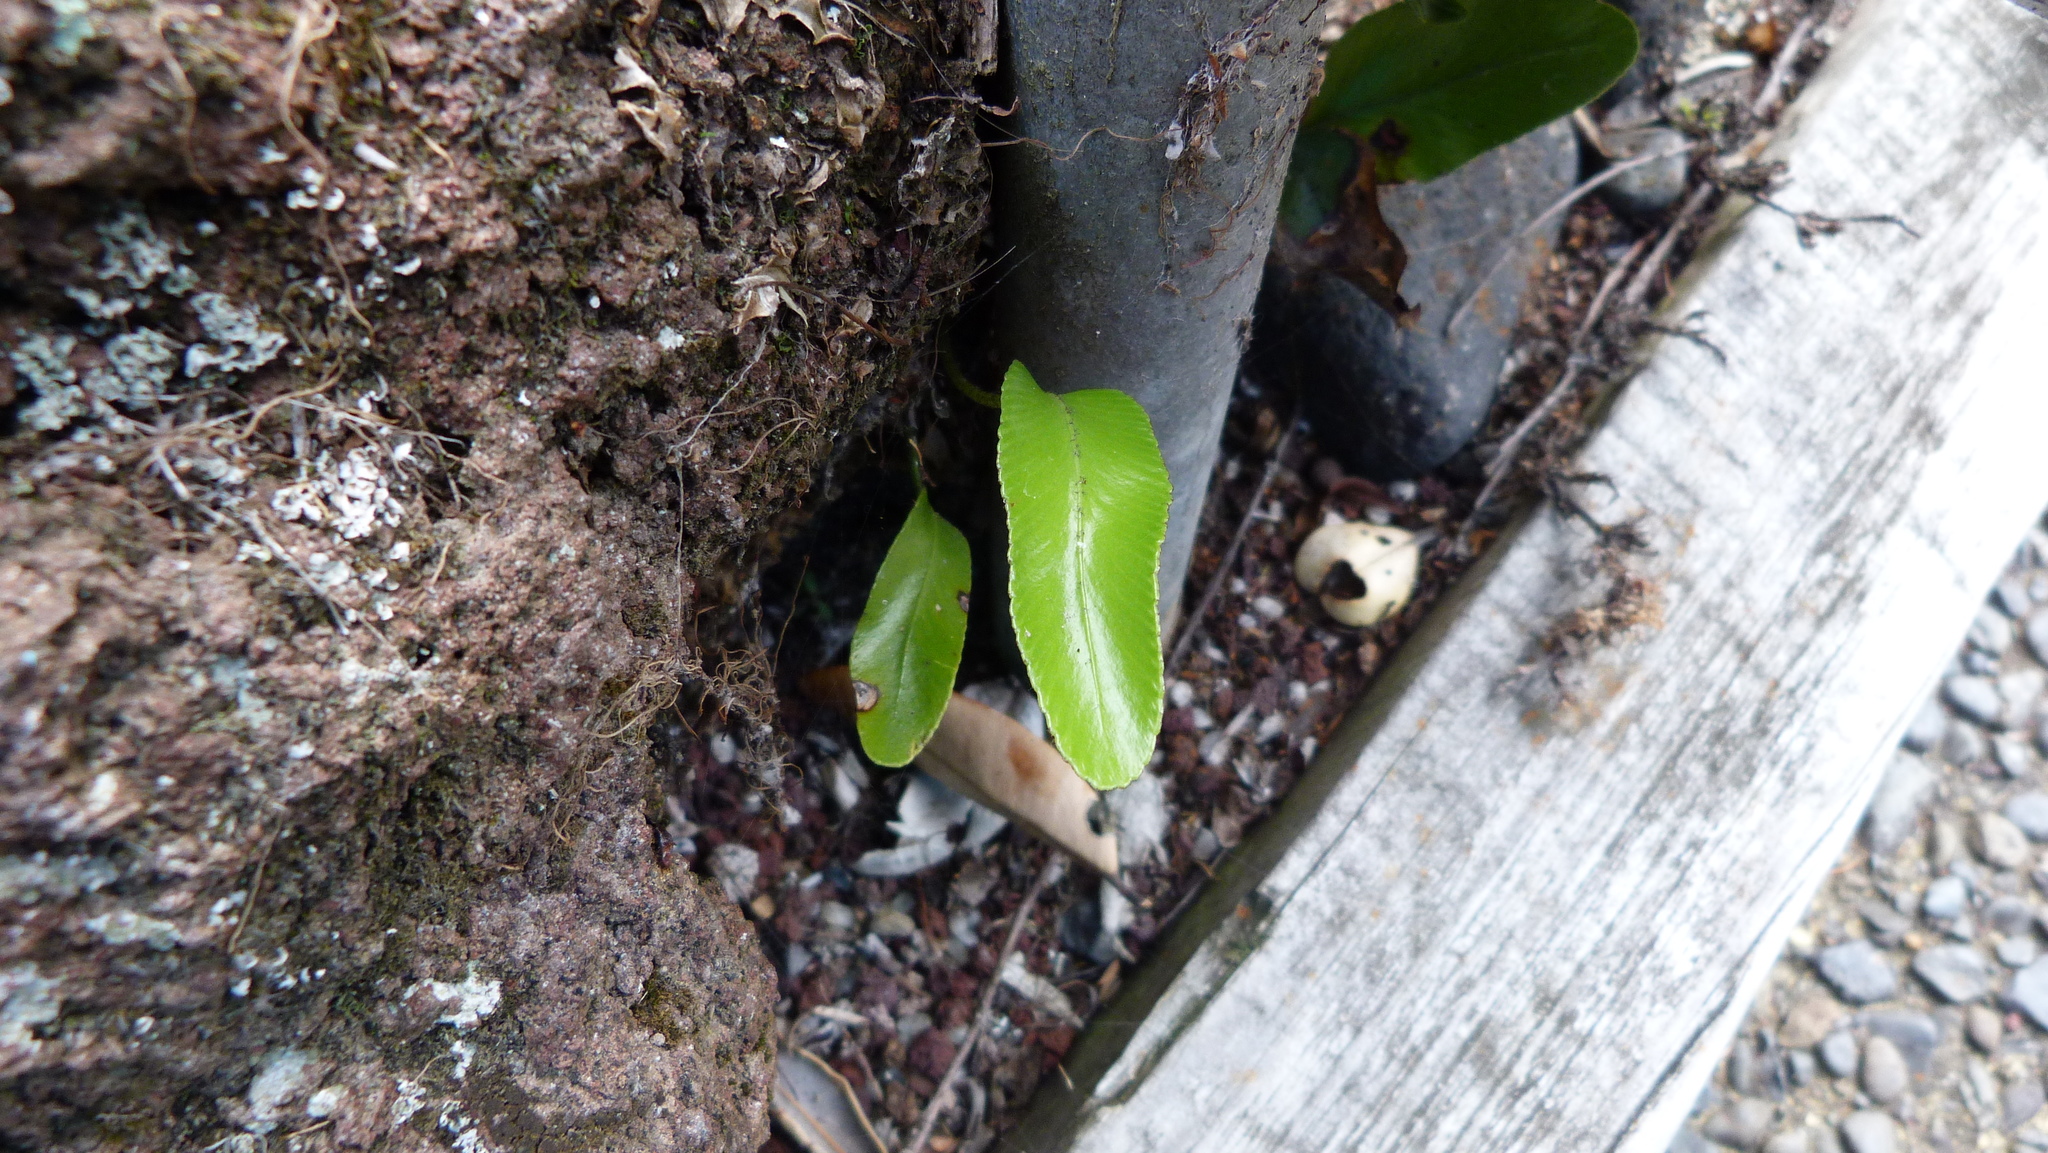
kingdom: Plantae
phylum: Tracheophyta
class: Polypodiopsida
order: Polypodiales
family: Aspleniaceae
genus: Asplenium
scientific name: Asplenium oblongifolium
